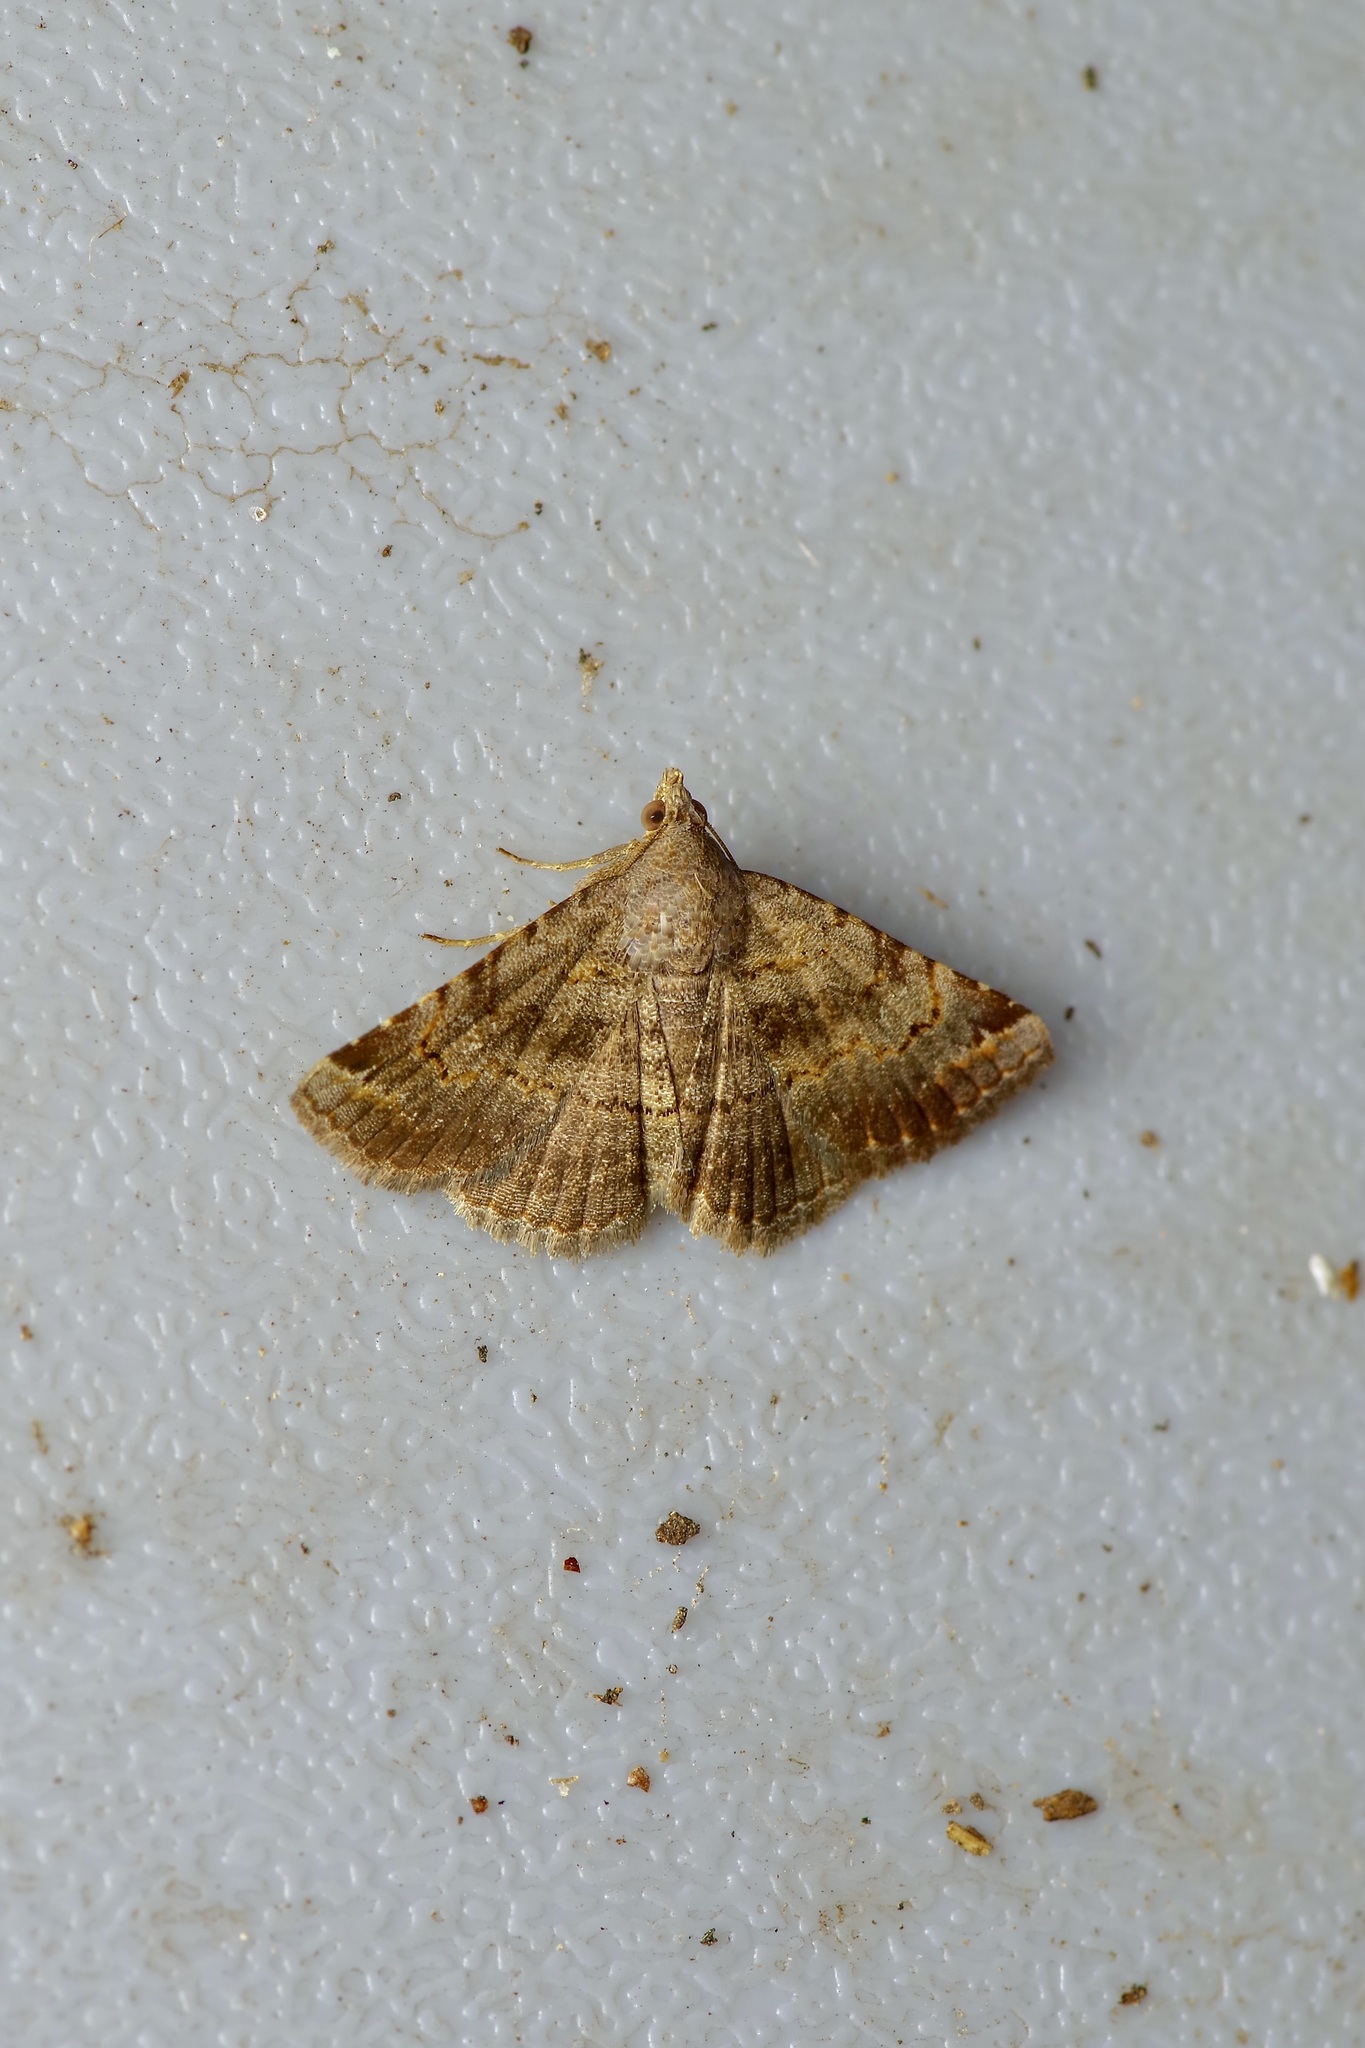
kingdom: Animalia
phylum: Arthropoda
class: Insecta
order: Lepidoptera
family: Erebidae
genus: Toxonprucha
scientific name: Toxonprucha crudelis
